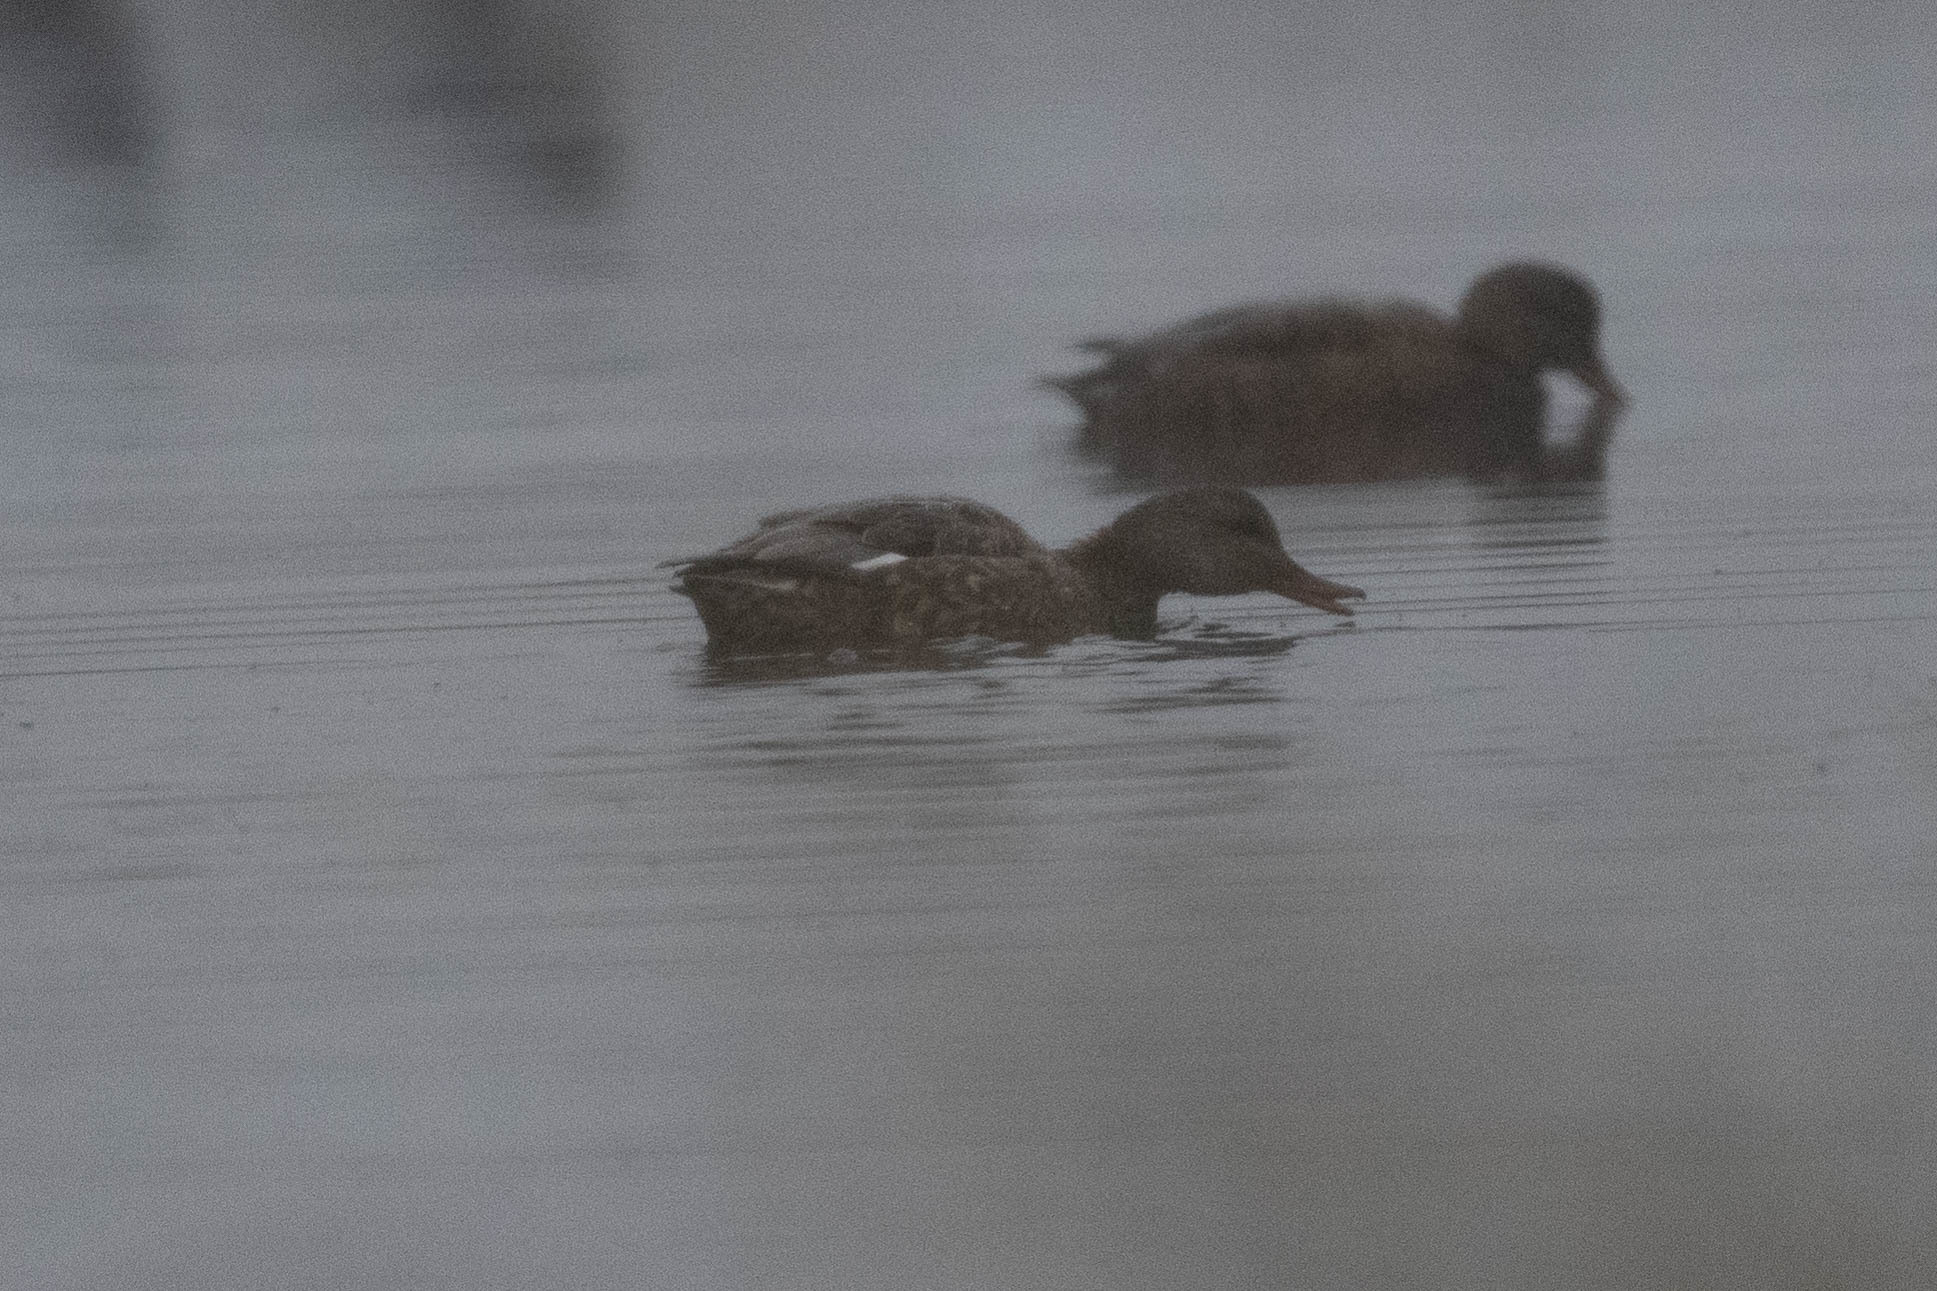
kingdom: Animalia
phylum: Chordata
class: Aves
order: Anseriformes
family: Anatidae
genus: Mareca
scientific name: Mareca strepera
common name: Gadwall
